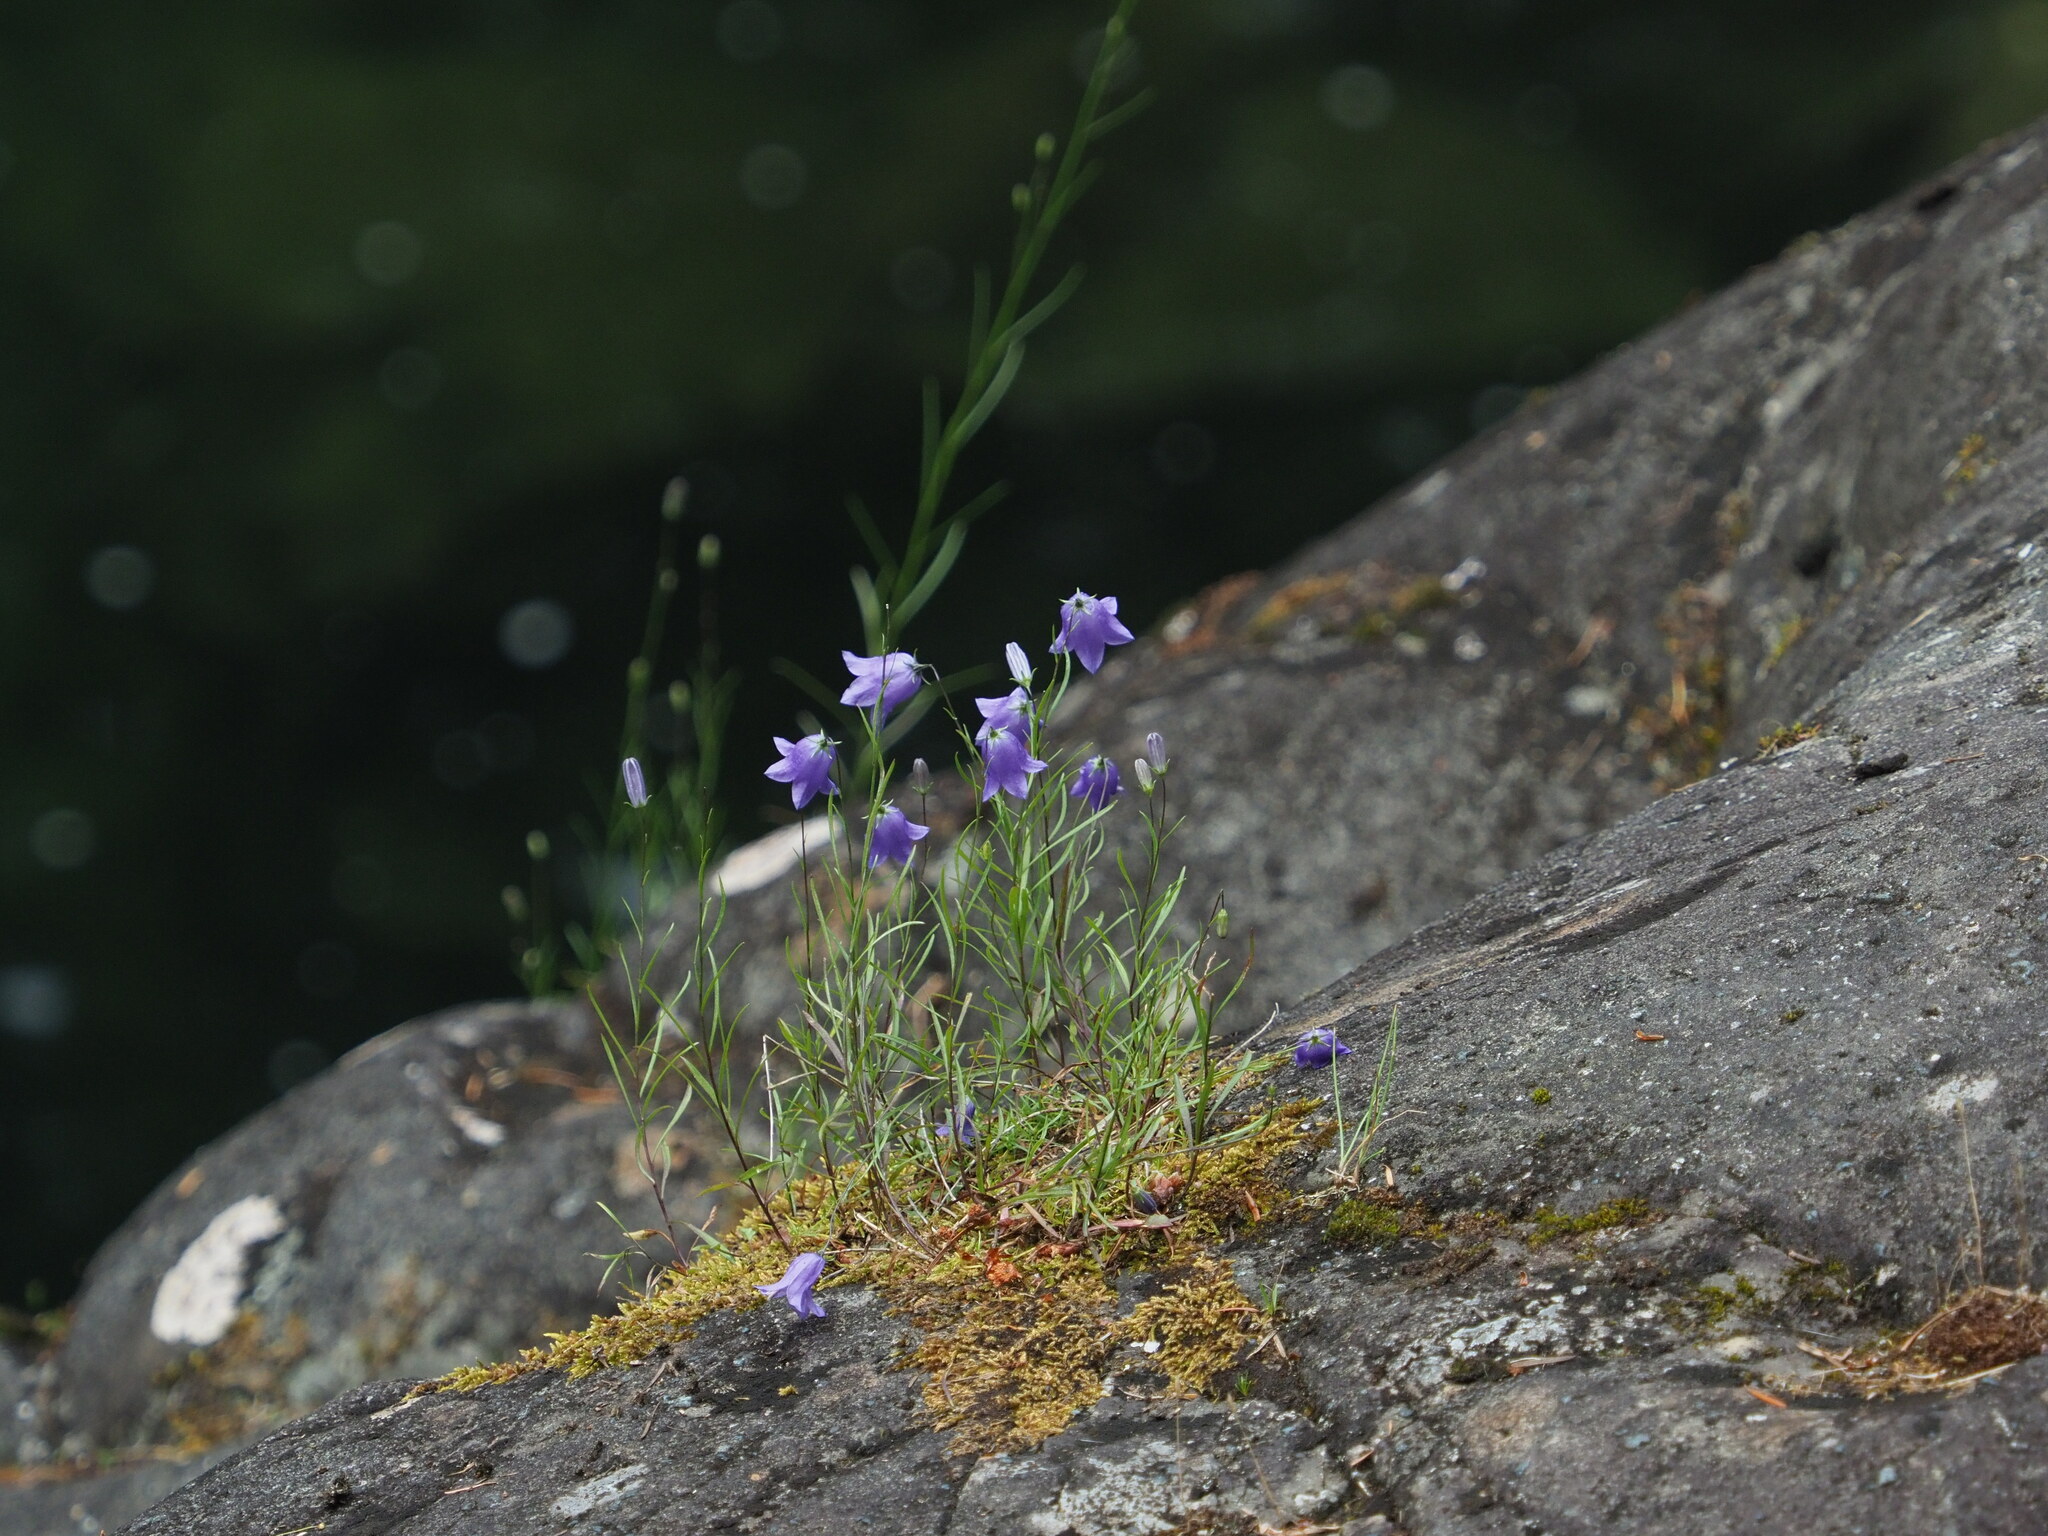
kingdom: Plantae
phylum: Tracheophyta
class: Magnoliopsida
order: Asterales
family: Campanulaceae
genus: Campanula
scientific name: Campanula alaskana
